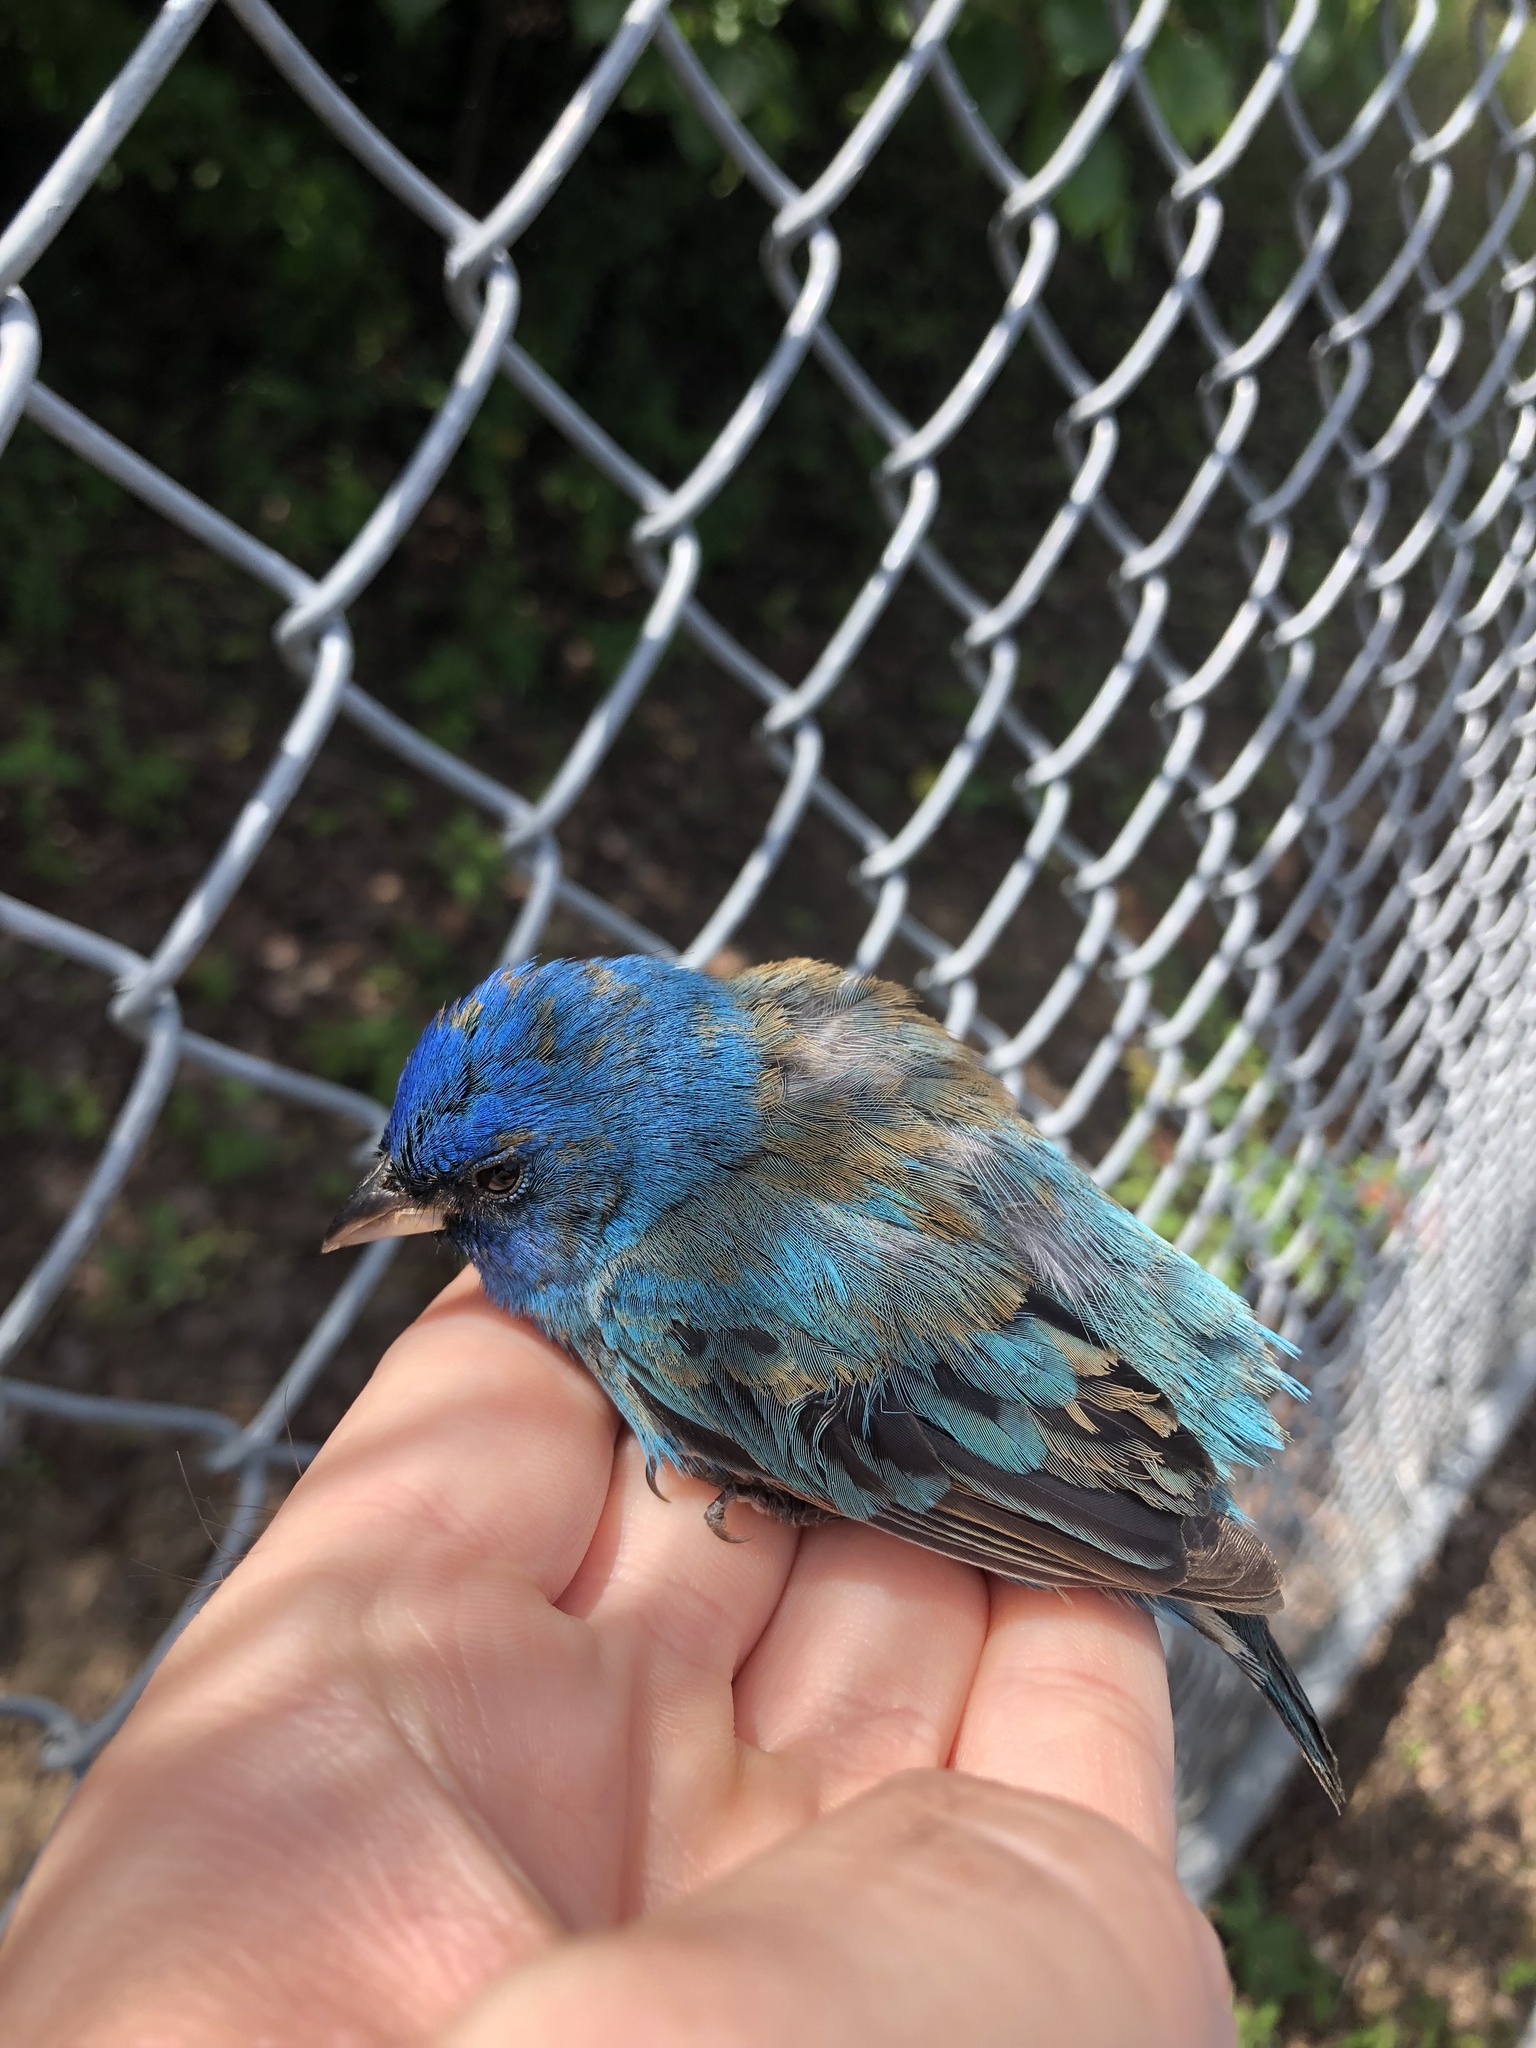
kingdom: Animalia
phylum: Chordata
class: Aves
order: Passeriformes
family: Cardinalidae
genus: Passerina
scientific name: Passerina cyanea
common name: Indigo bunting
